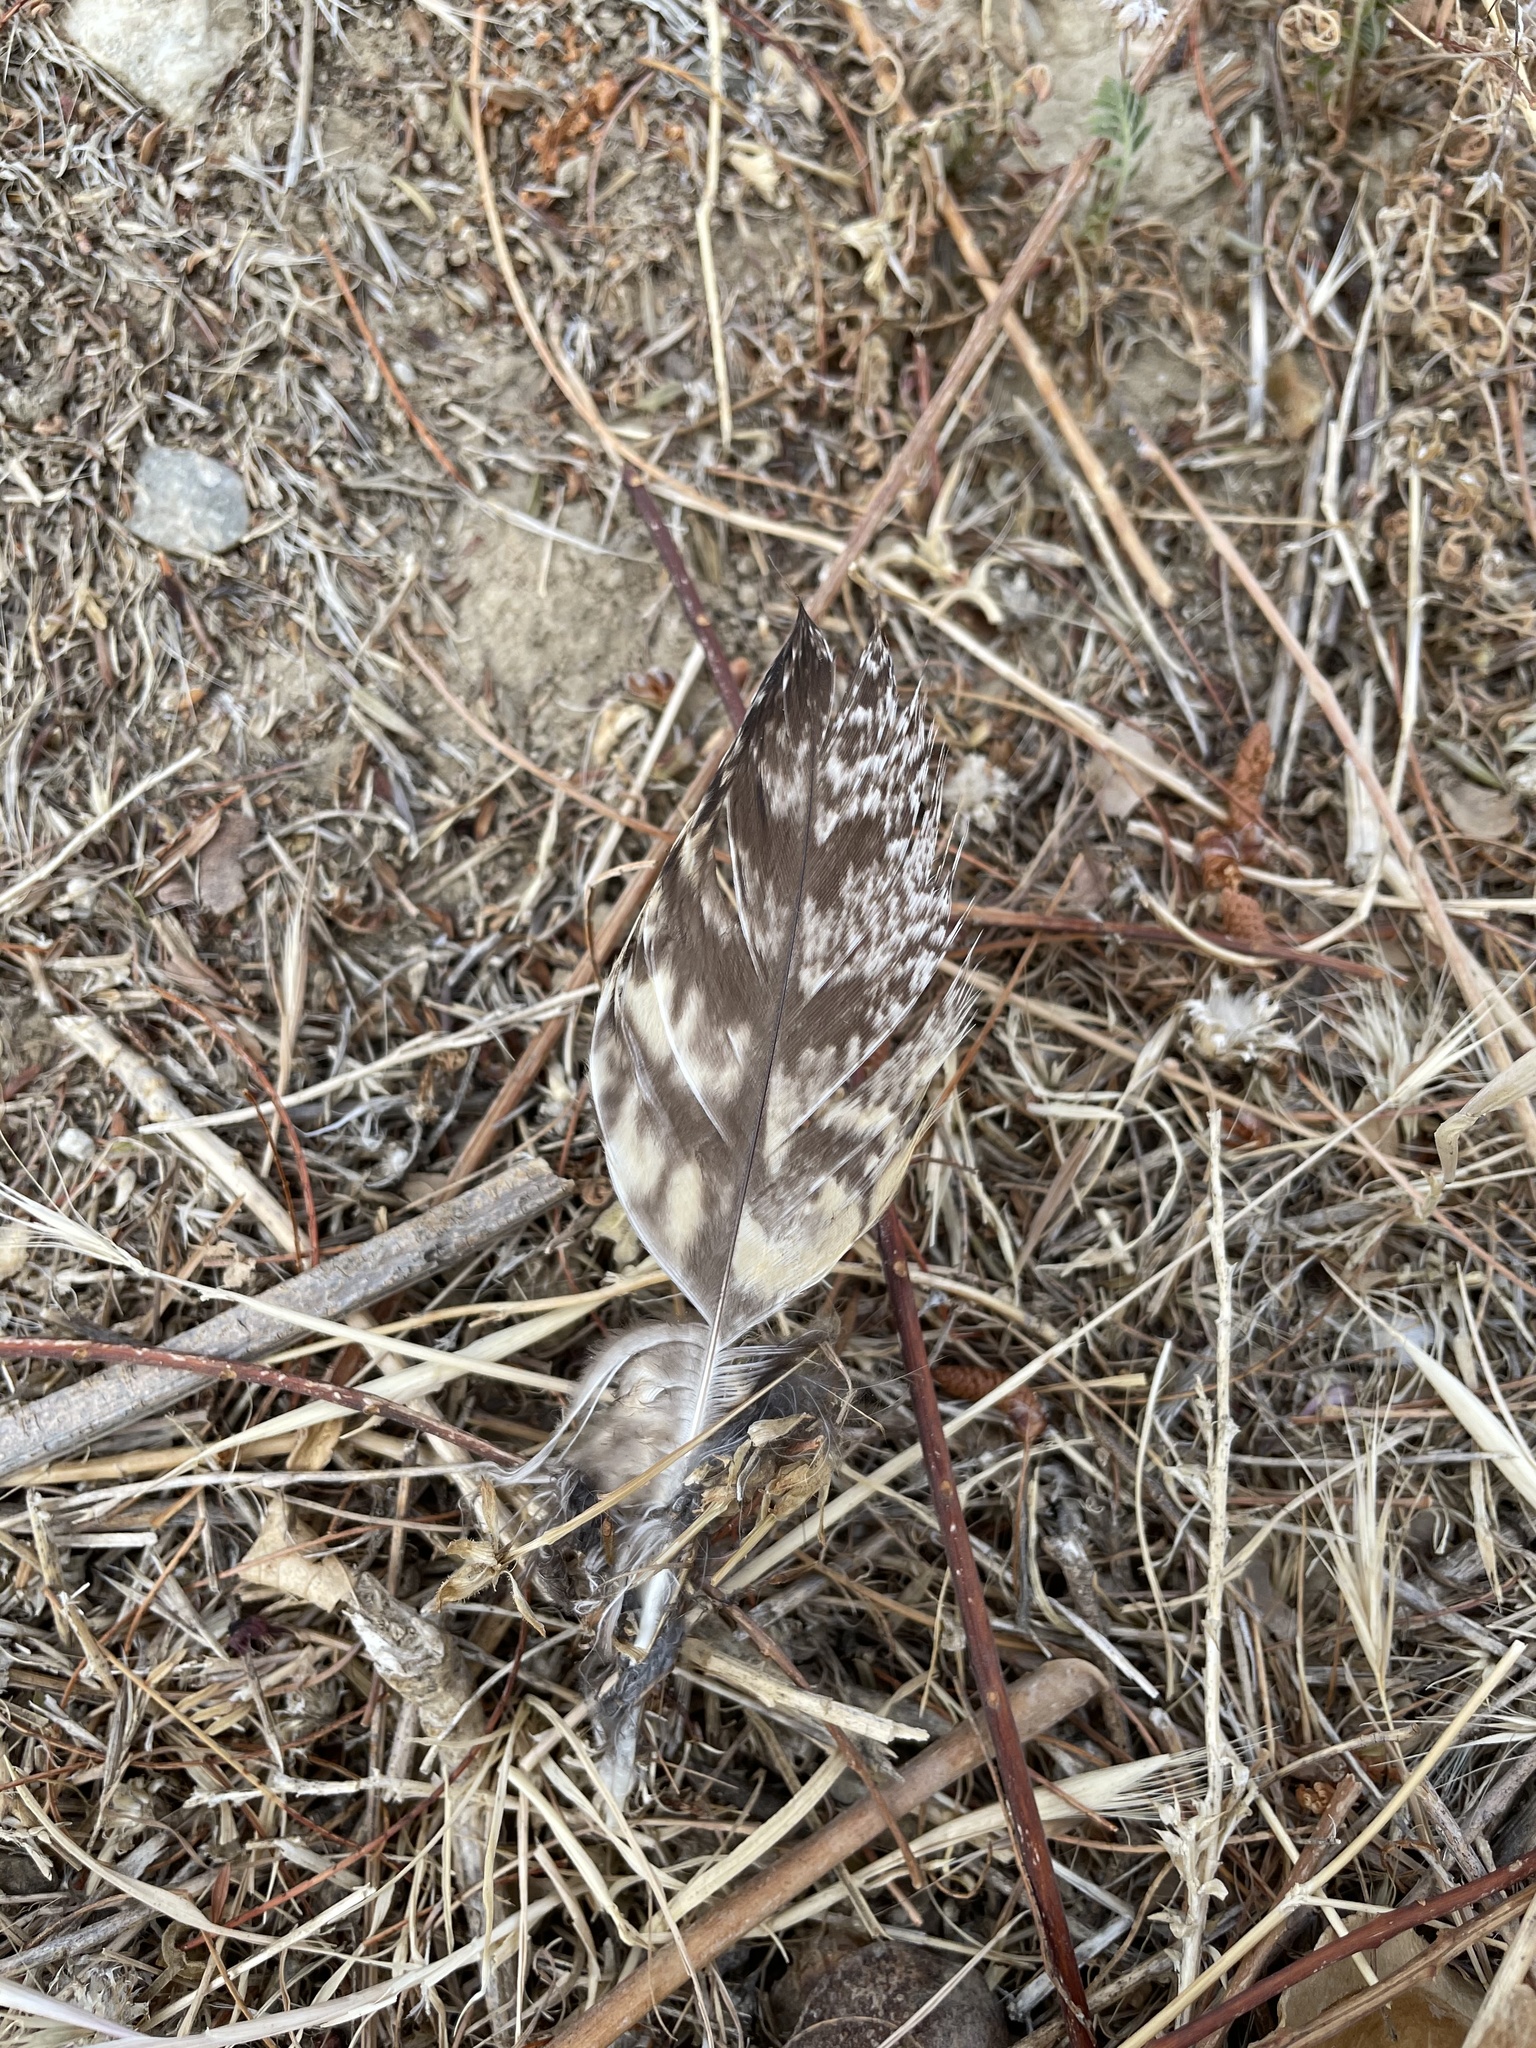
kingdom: Animalia
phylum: Chordata
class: Aves
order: Strigiformes
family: Strigidae
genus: Bubo
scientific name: Bubo virginianus
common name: Great horned owl
